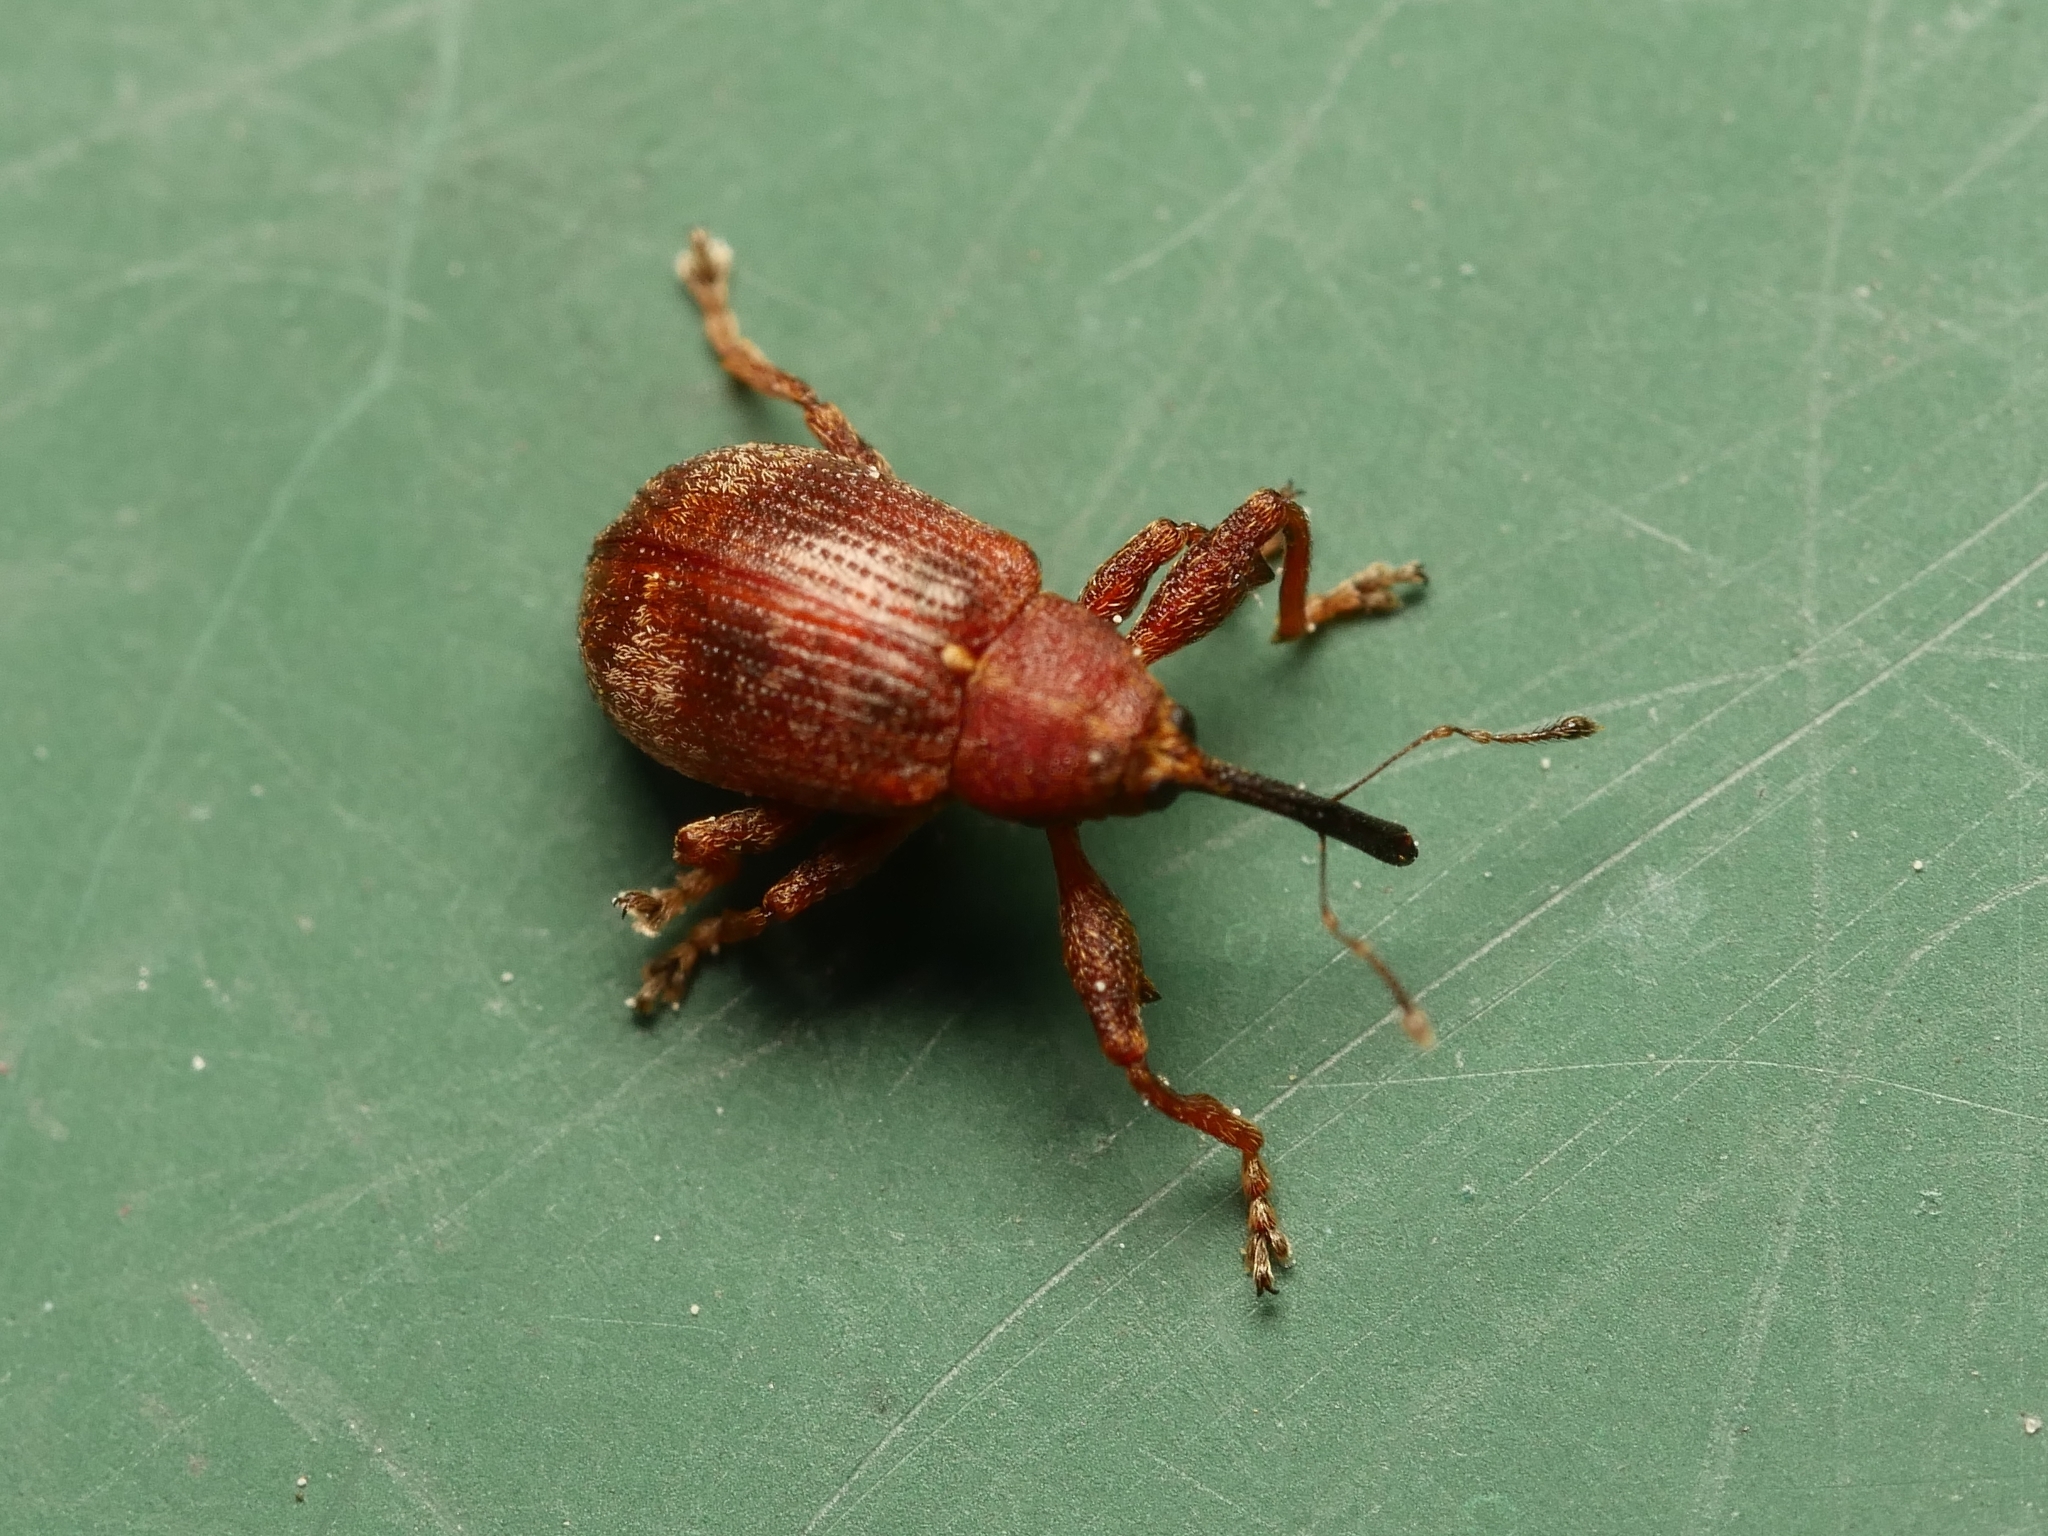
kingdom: Animalia
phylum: Arthropoda
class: Insecta
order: Coleoptera
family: Curculionidae
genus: Anthonomus
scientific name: Anthonomus ulmi
